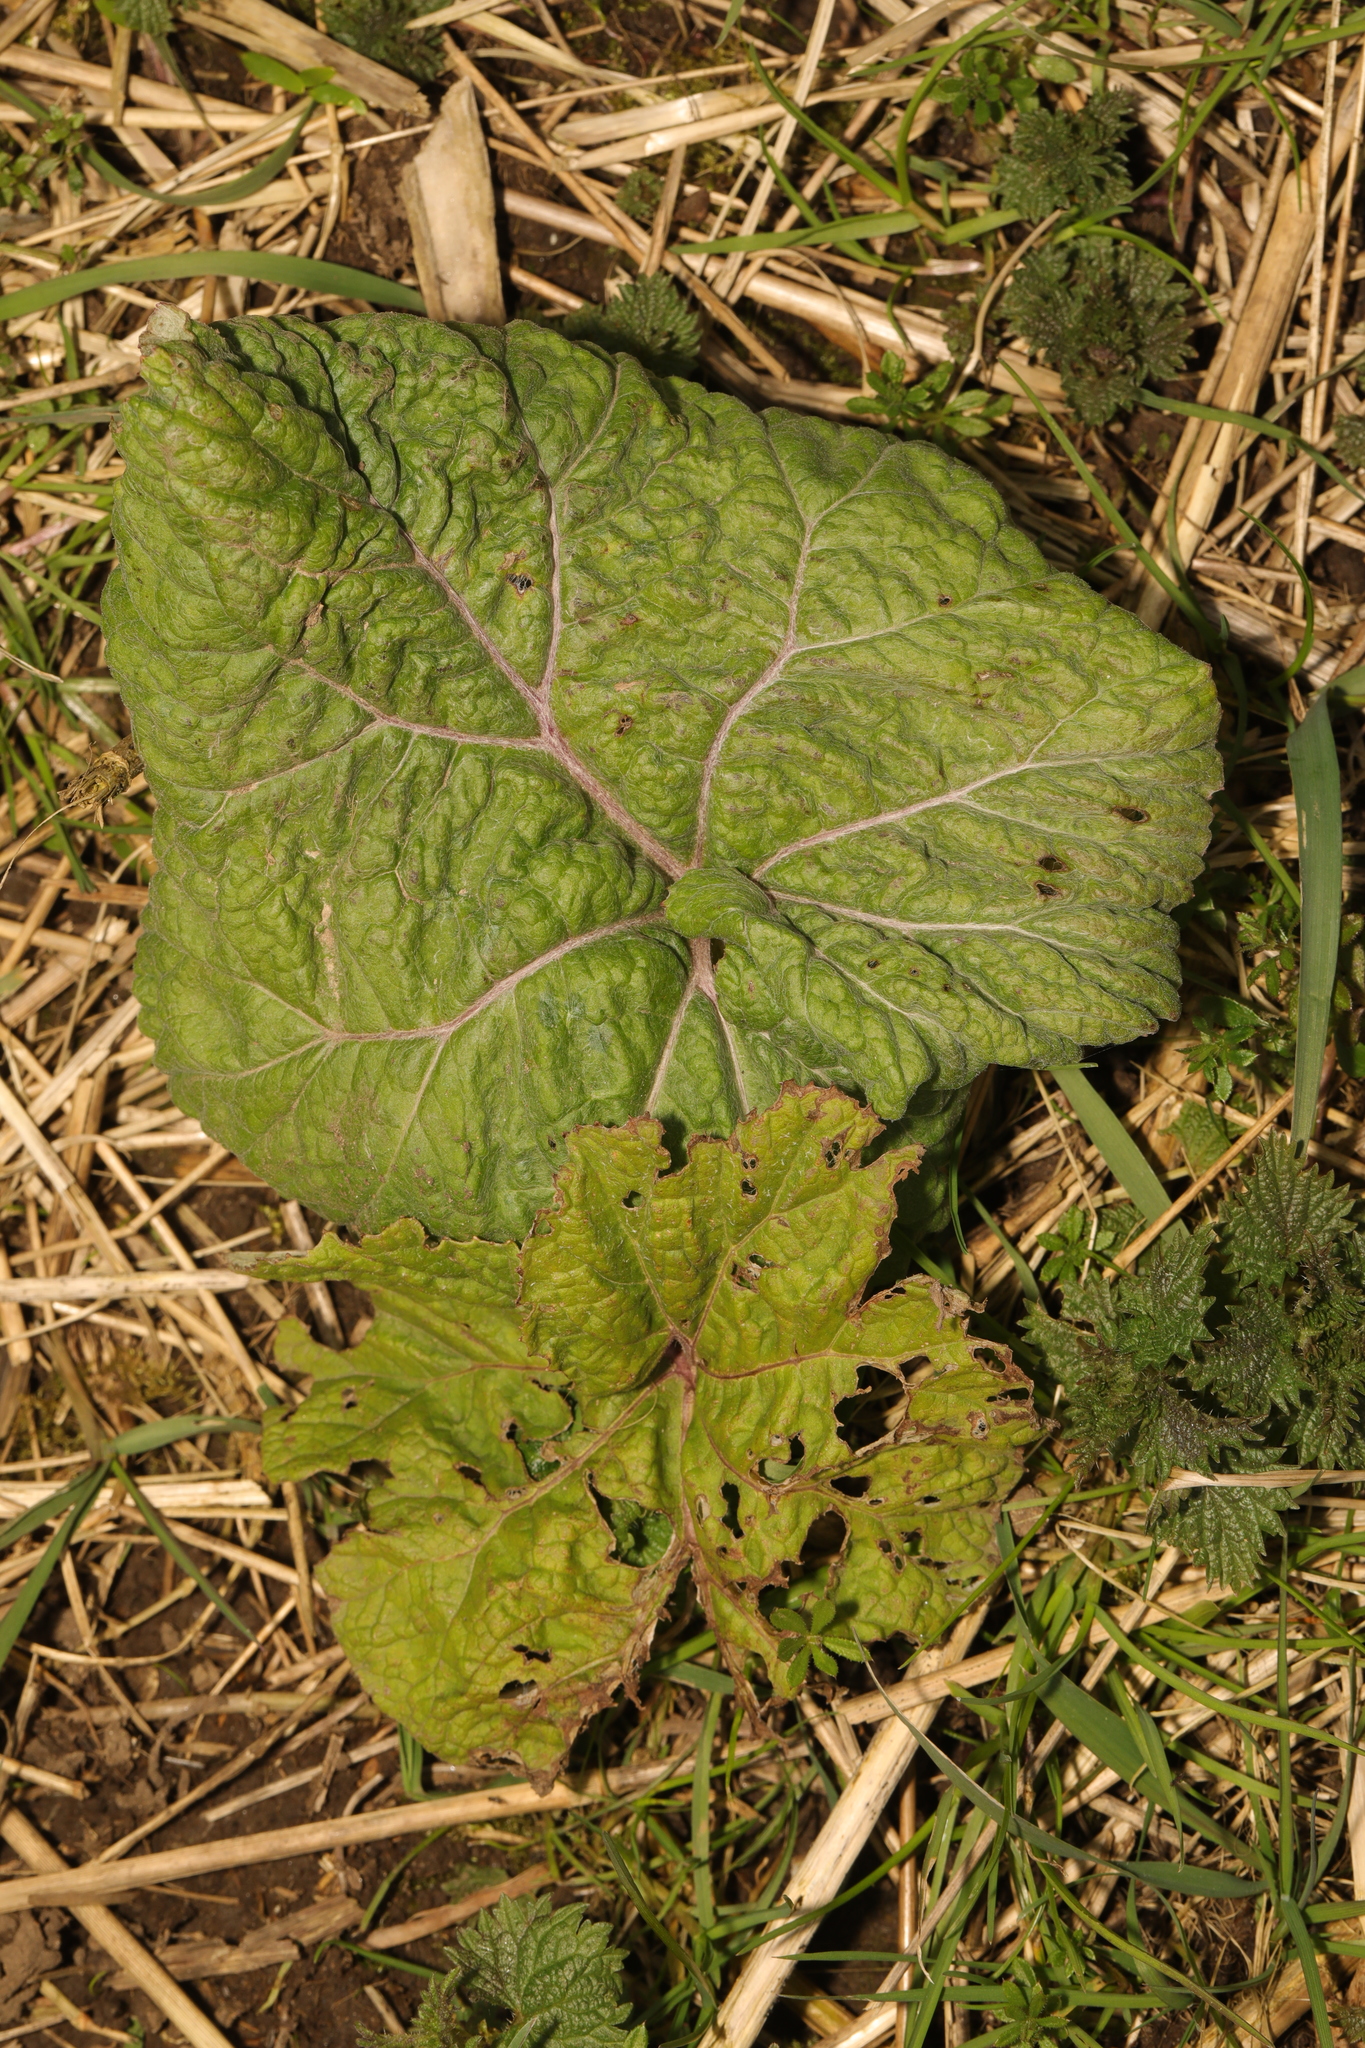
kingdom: Plantae
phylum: Tracheophyta
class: Magnoliopsida
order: Asterales
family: Asteraceae
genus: Petasites
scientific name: Petasites hybridus
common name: Butterbur
